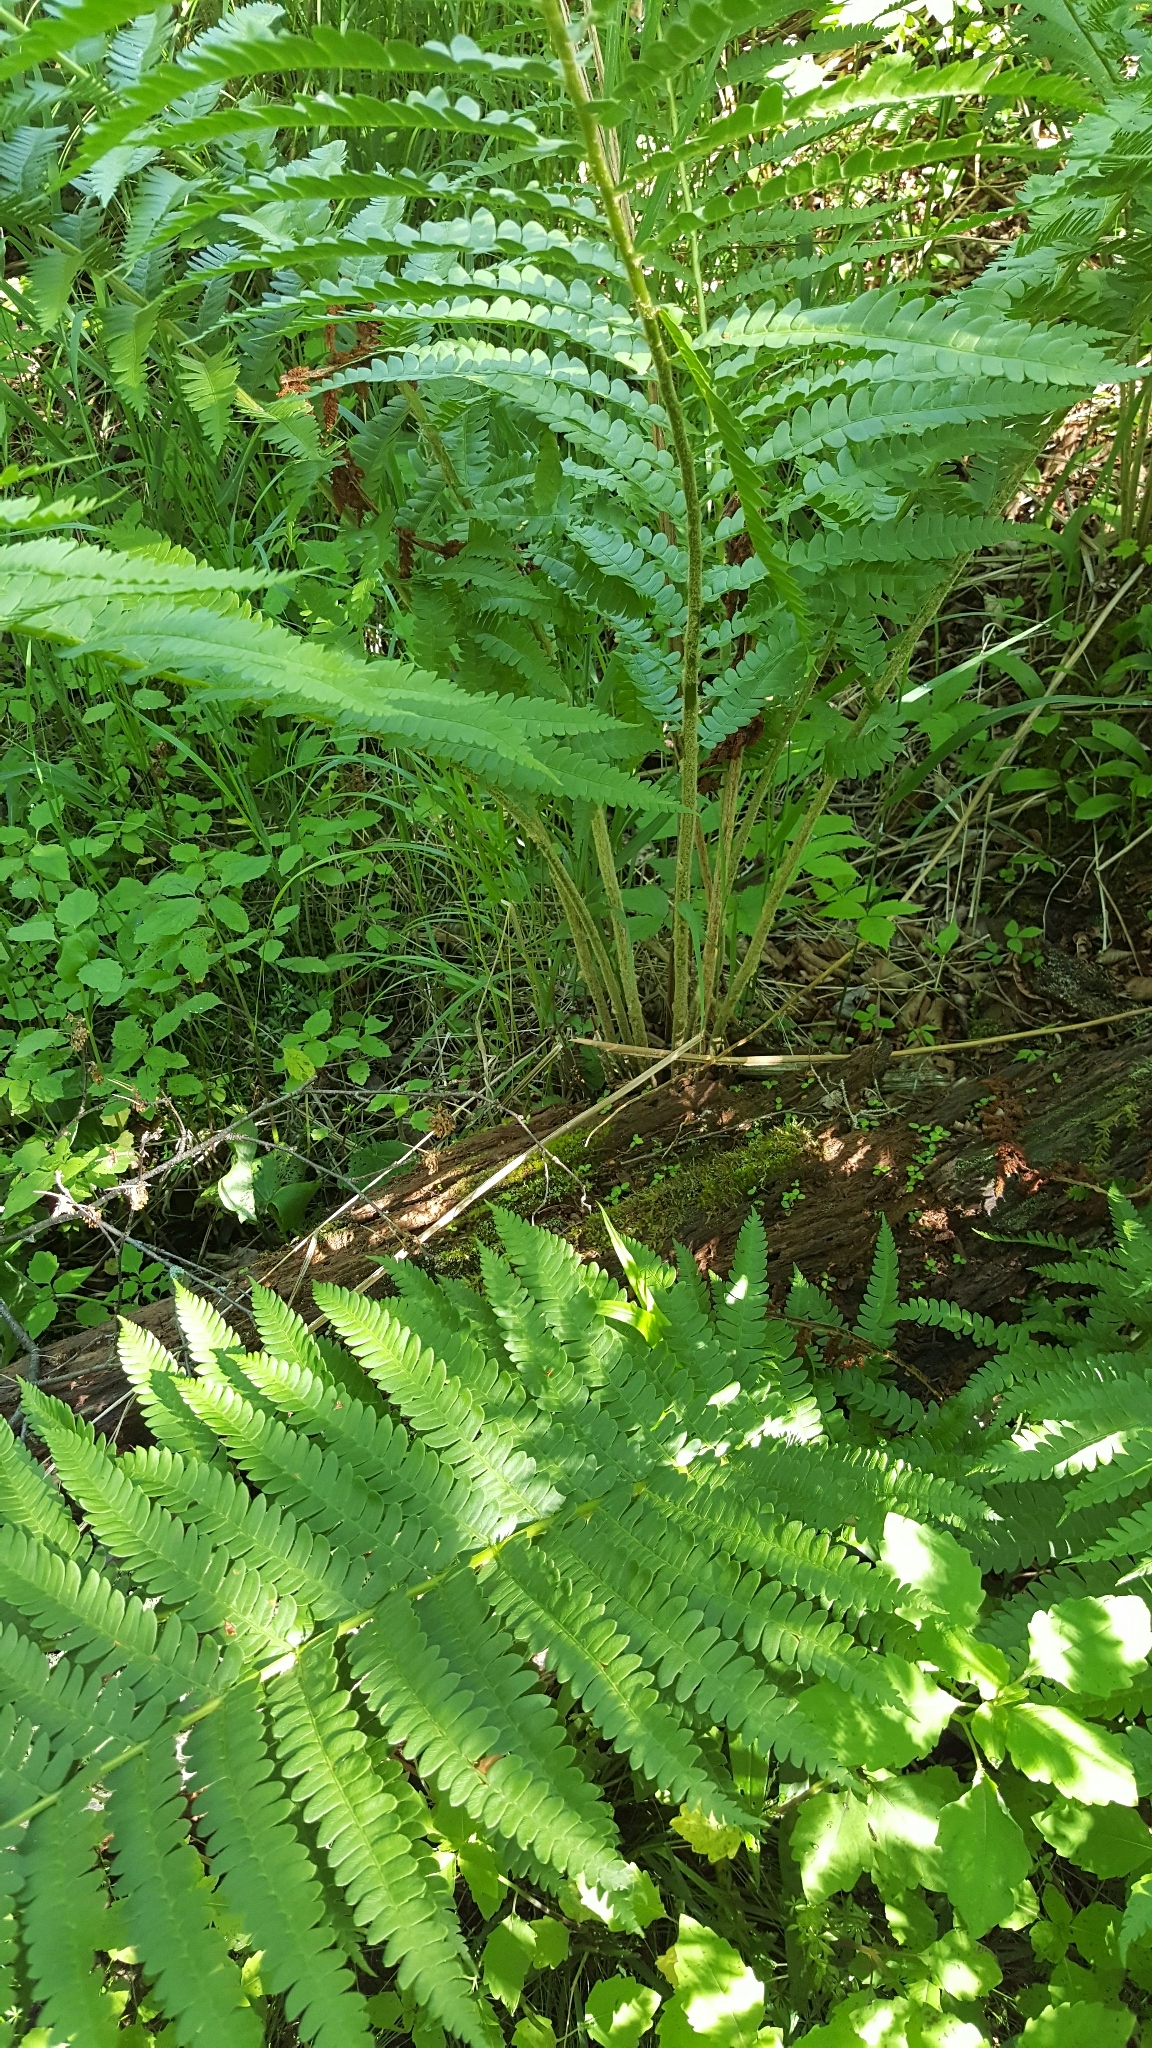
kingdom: Plantae
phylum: Tracheophyta
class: Polypodiopsida
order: Osmundales
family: Osmundaceae
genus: Osmundastrum
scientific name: Osmundastrum cinnamomeum
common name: Cinnamon fern
